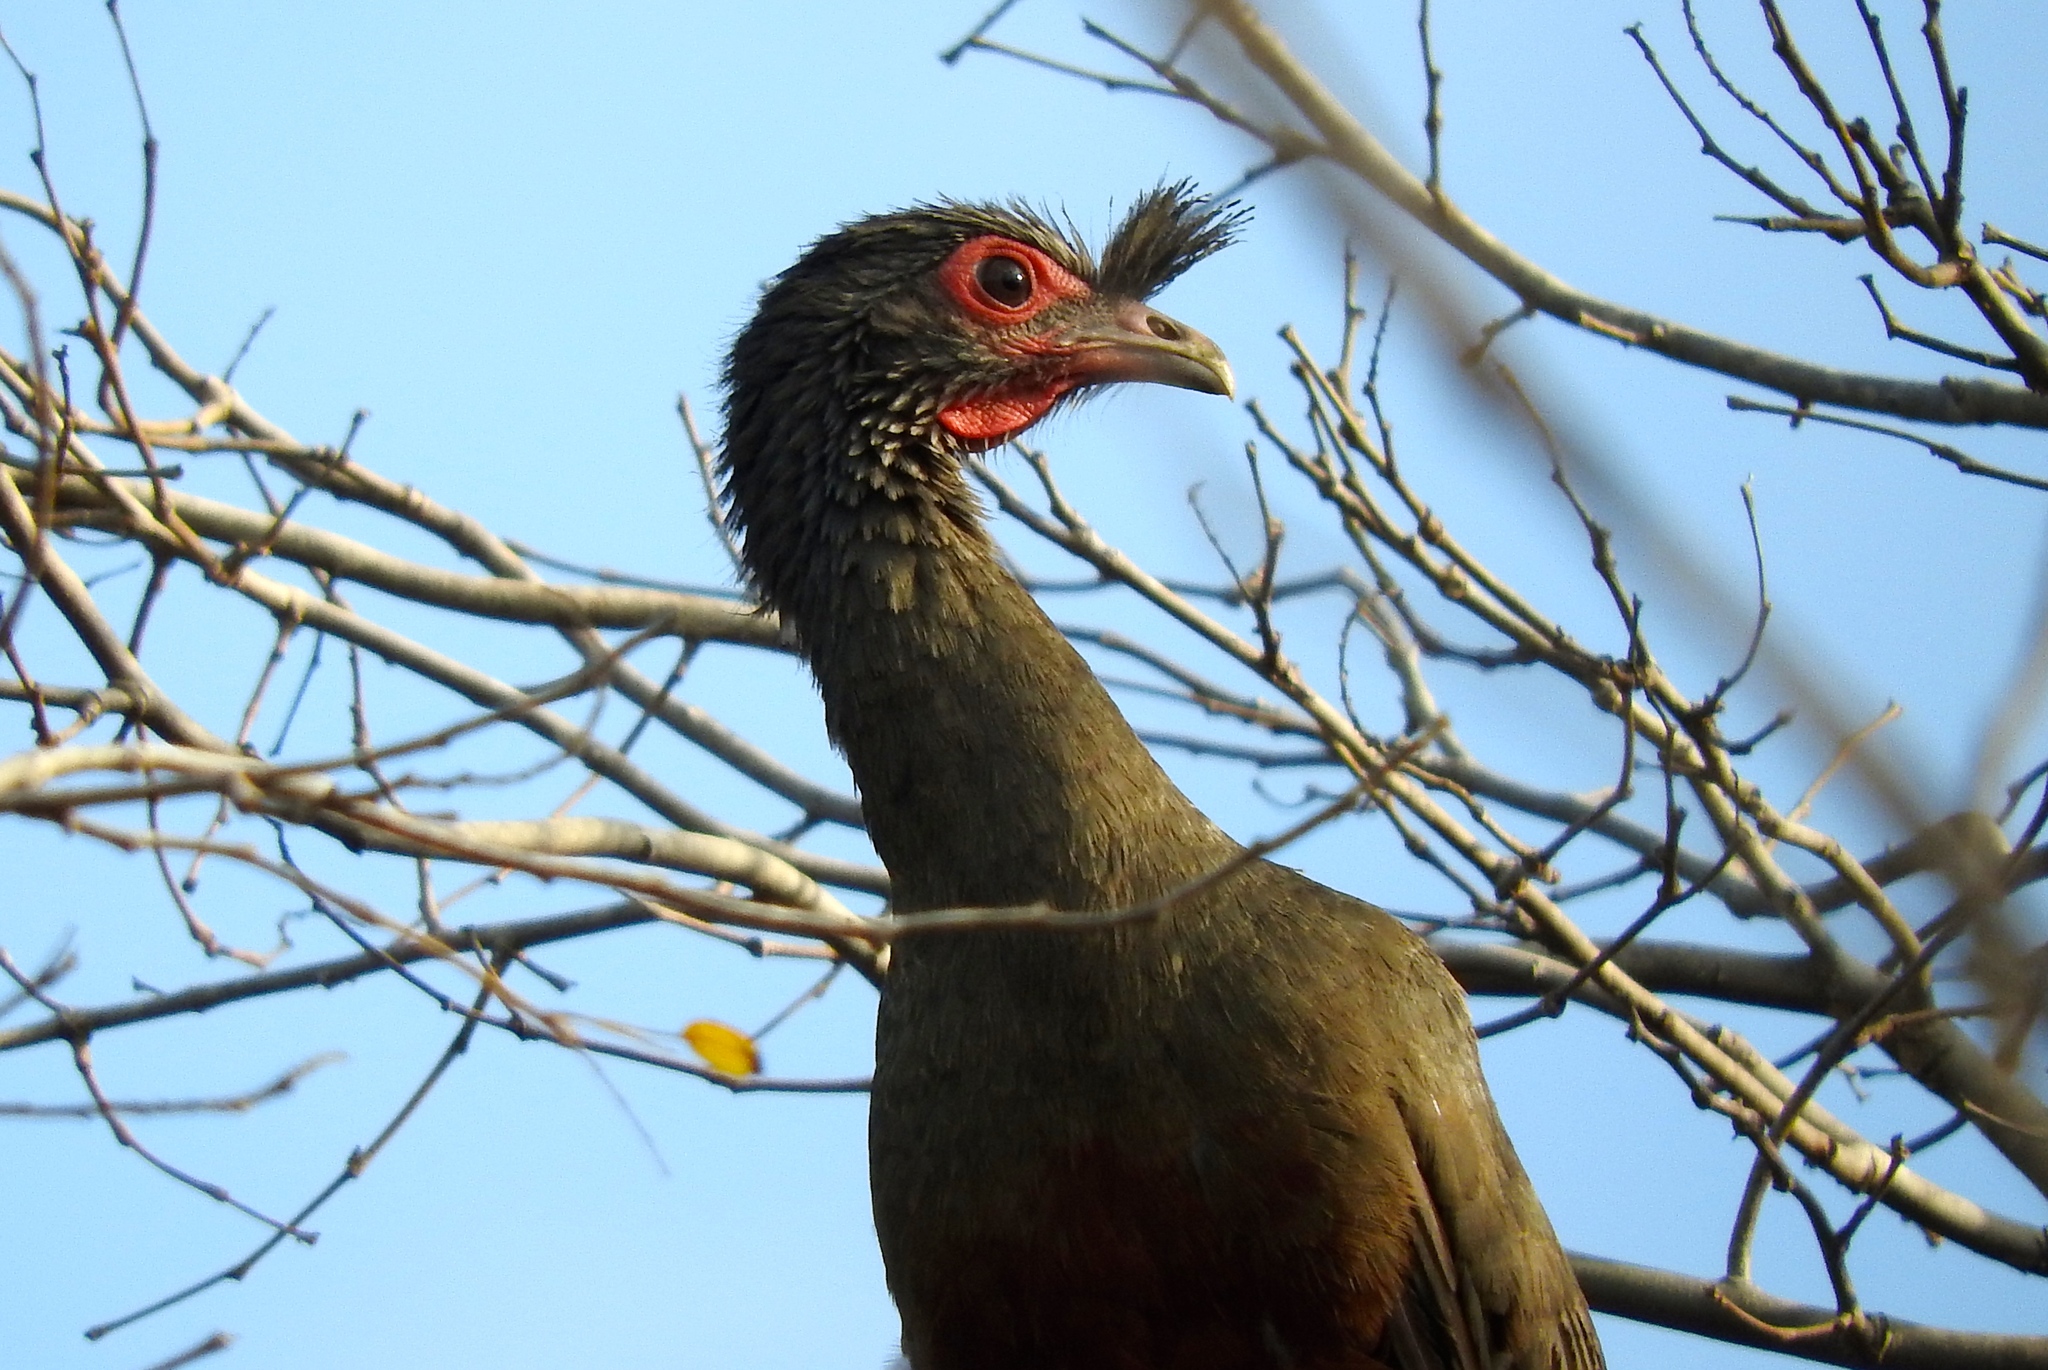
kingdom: Animalia
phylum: Chordata
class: Aves
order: Galliformes
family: Cracidae
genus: Ortalis
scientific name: Ortalis wagleri
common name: Rufous-bellied chachalaca
